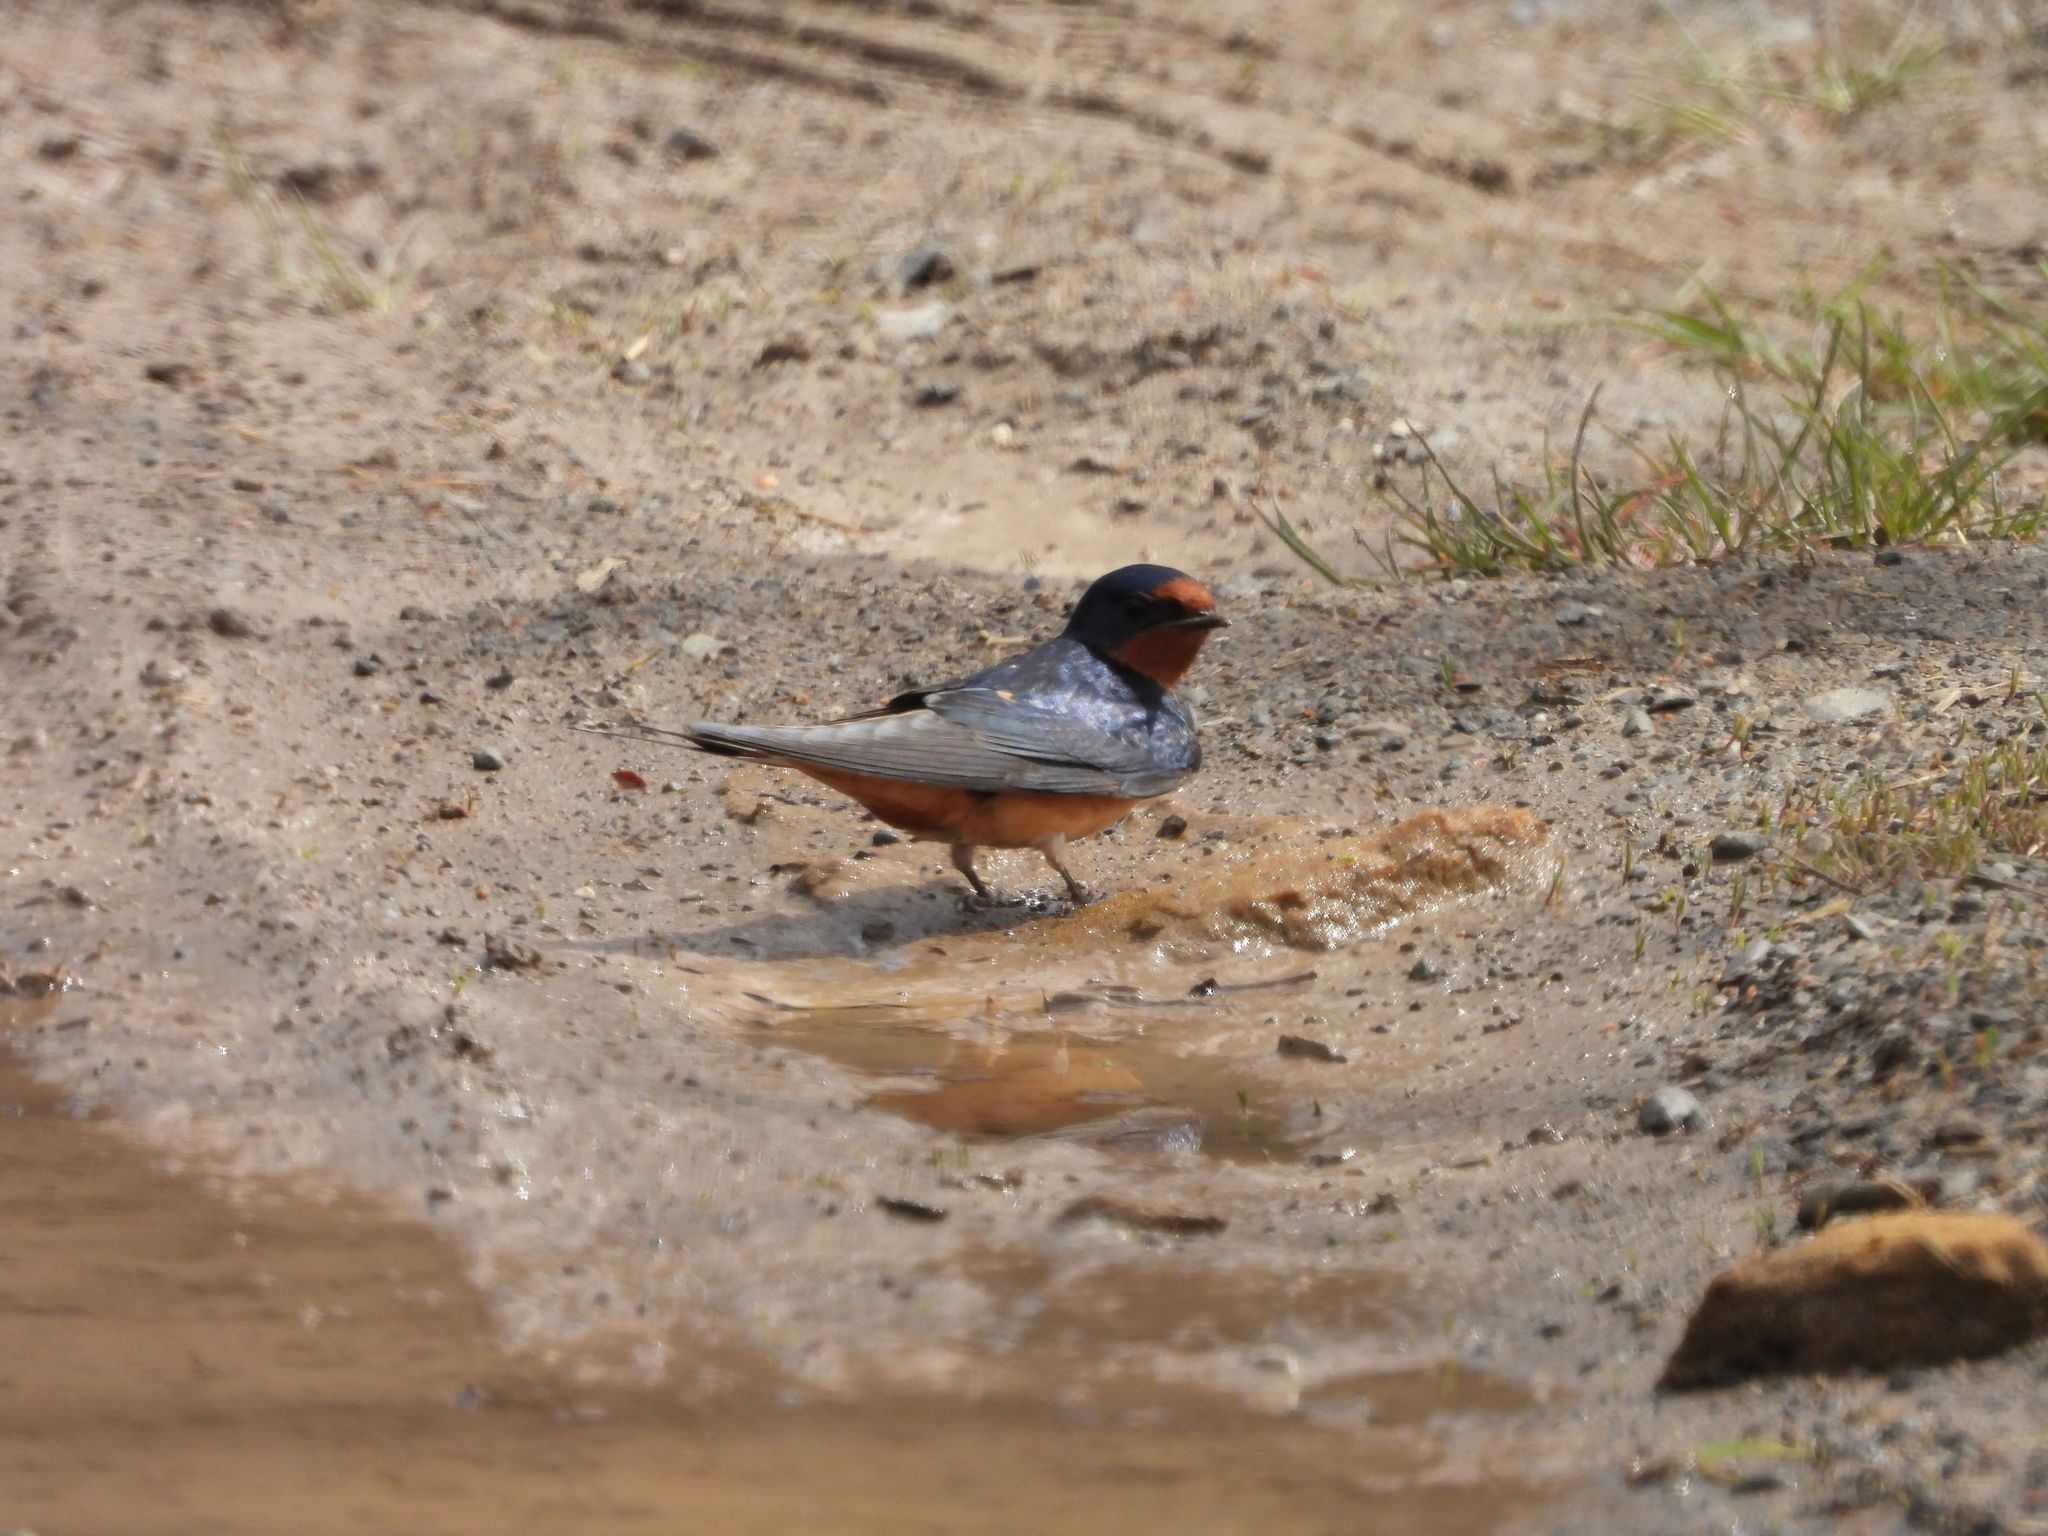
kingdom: Animalia
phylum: Chordata
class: Aves
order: Passeriformes
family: Hirundinidae
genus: Hirundo
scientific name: Hirundo rustica
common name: Barn swallow
